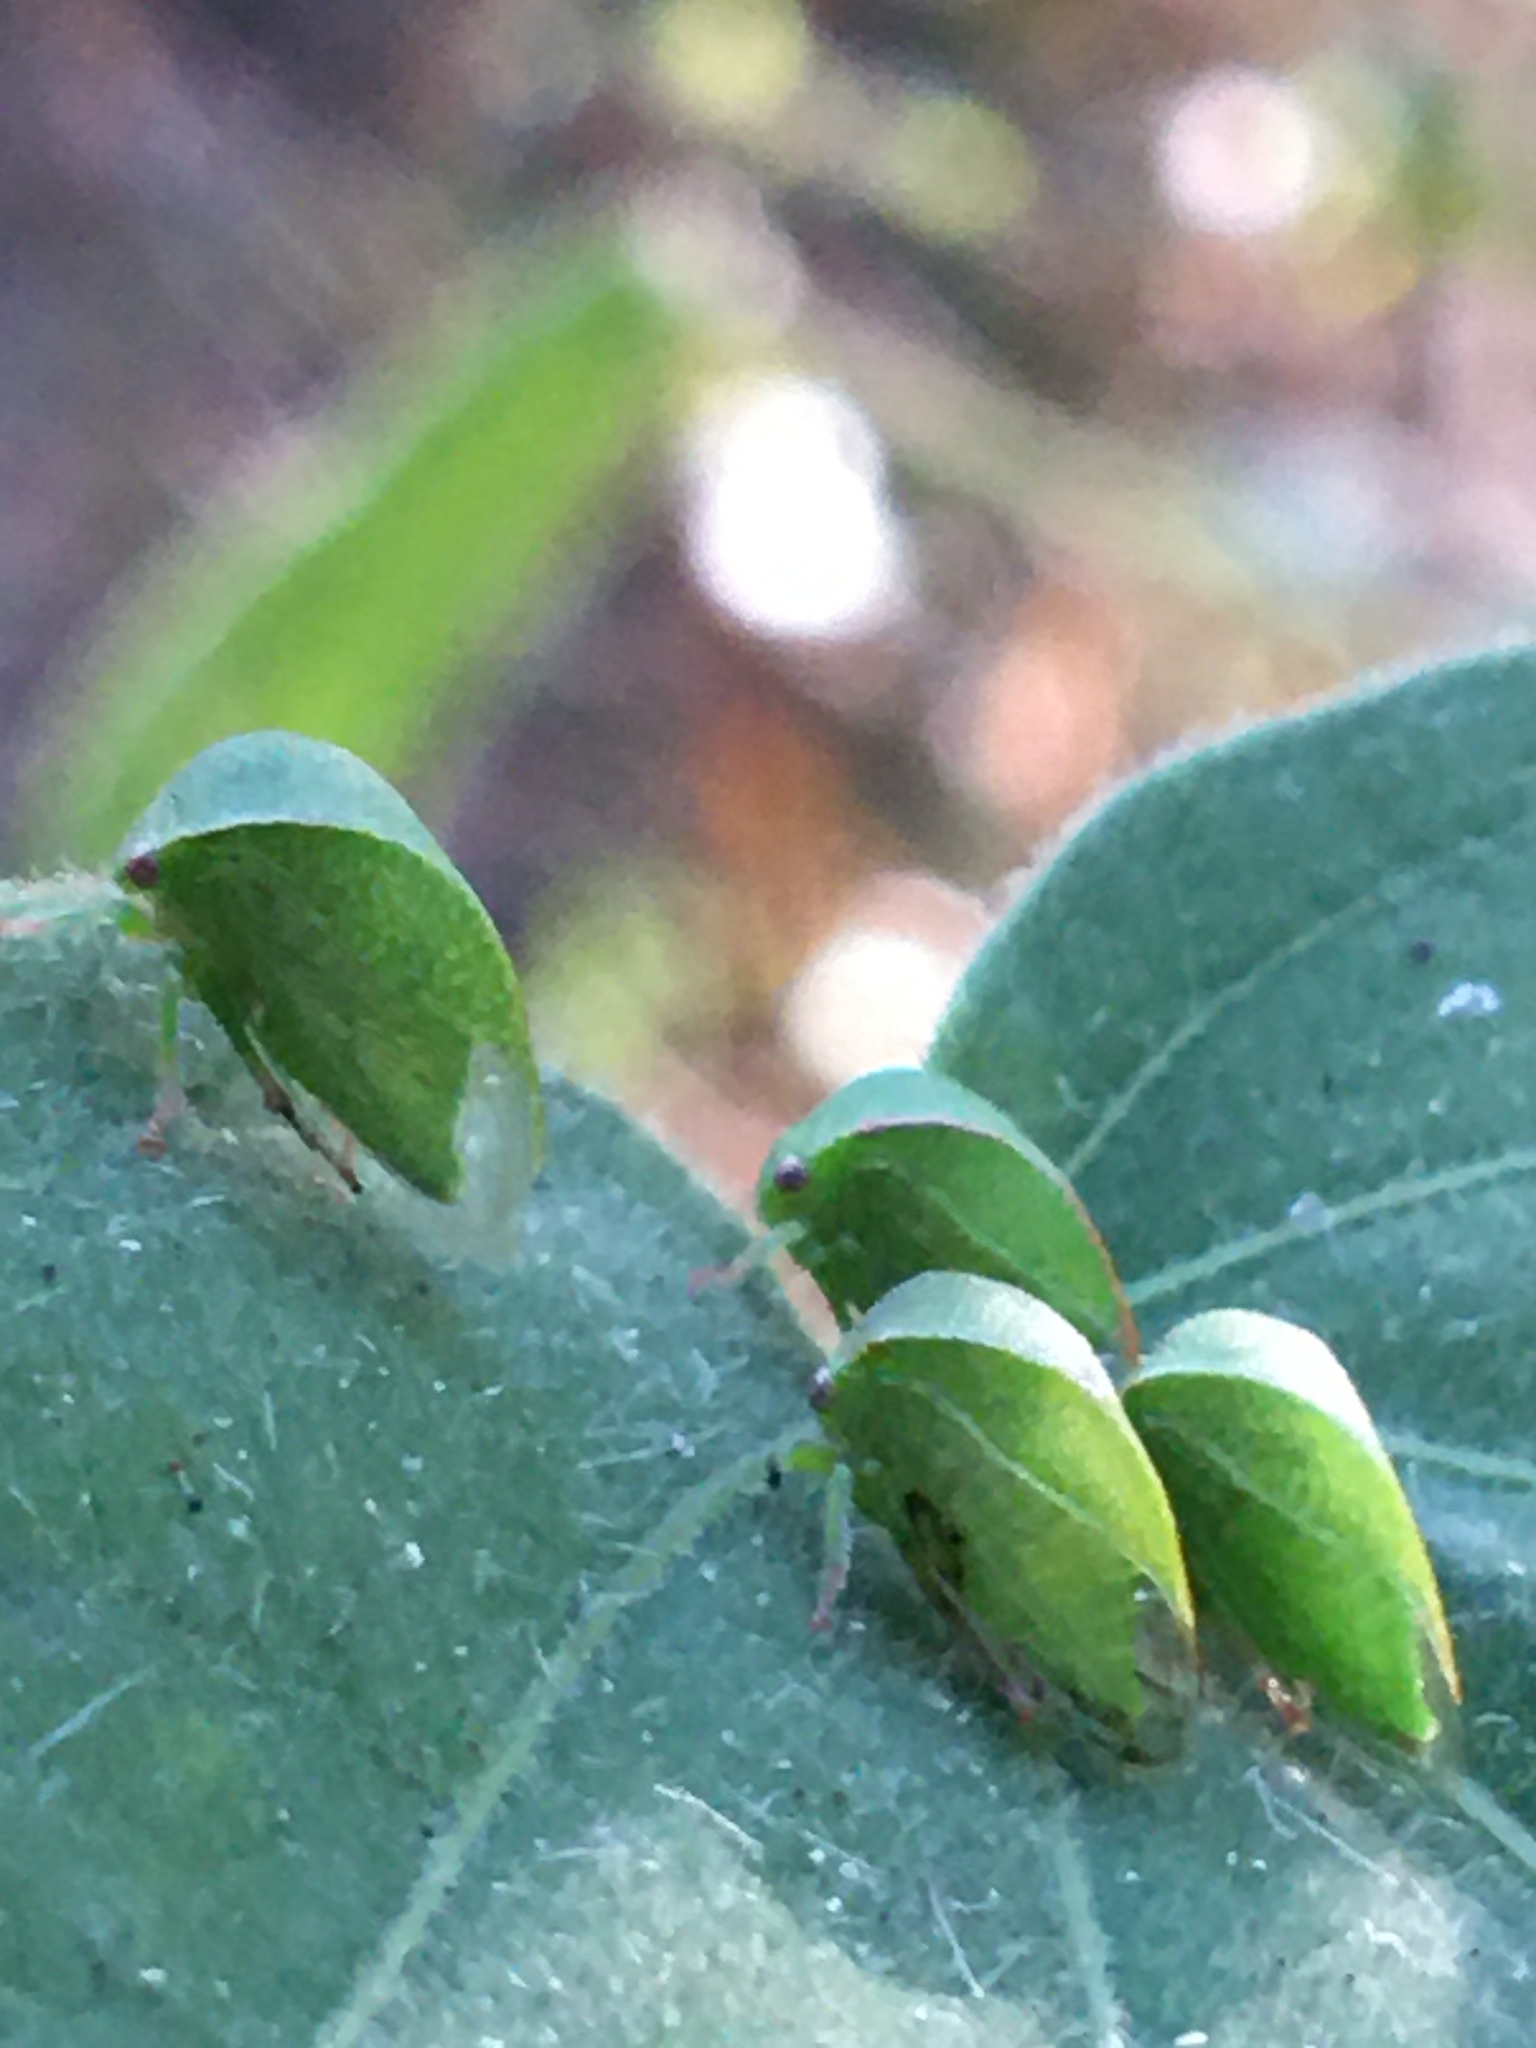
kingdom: Animalia
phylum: Arthropoda
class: Insecta
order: Hemiptera
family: Membracidae
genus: Spissistilus
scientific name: Spissistilus festina
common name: Membracid bug
